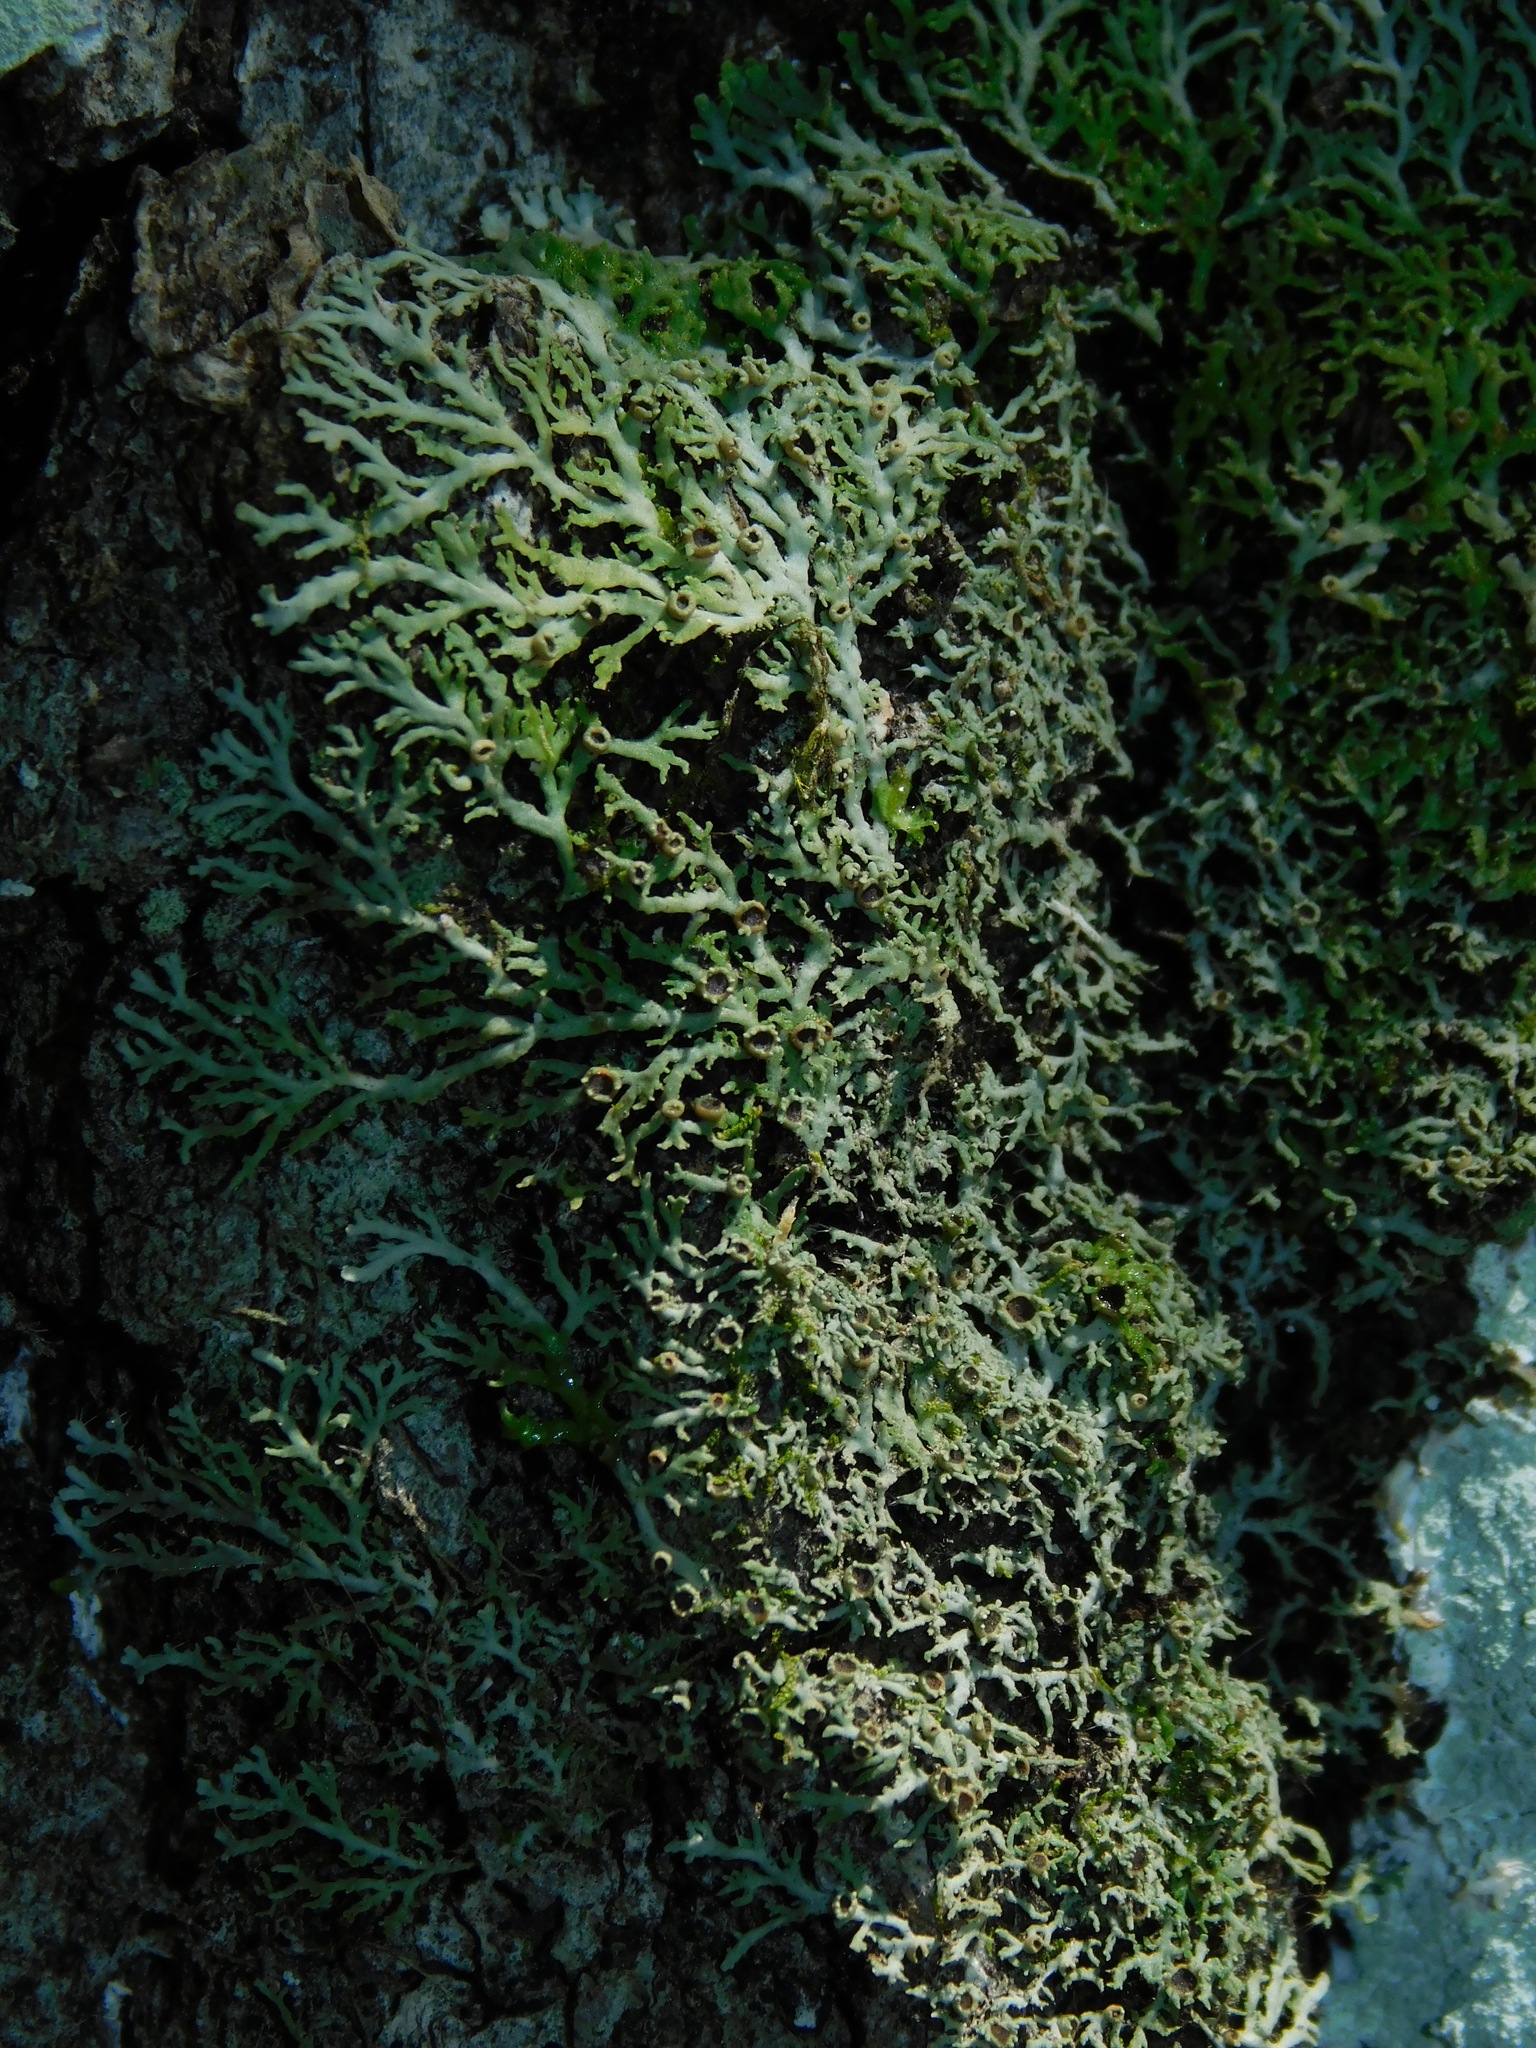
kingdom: Fungi
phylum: Ascomycota
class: Lecanoromycetes
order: Caliciales
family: Physciaceae
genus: Kurokawia
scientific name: Kurokawia palmulata
